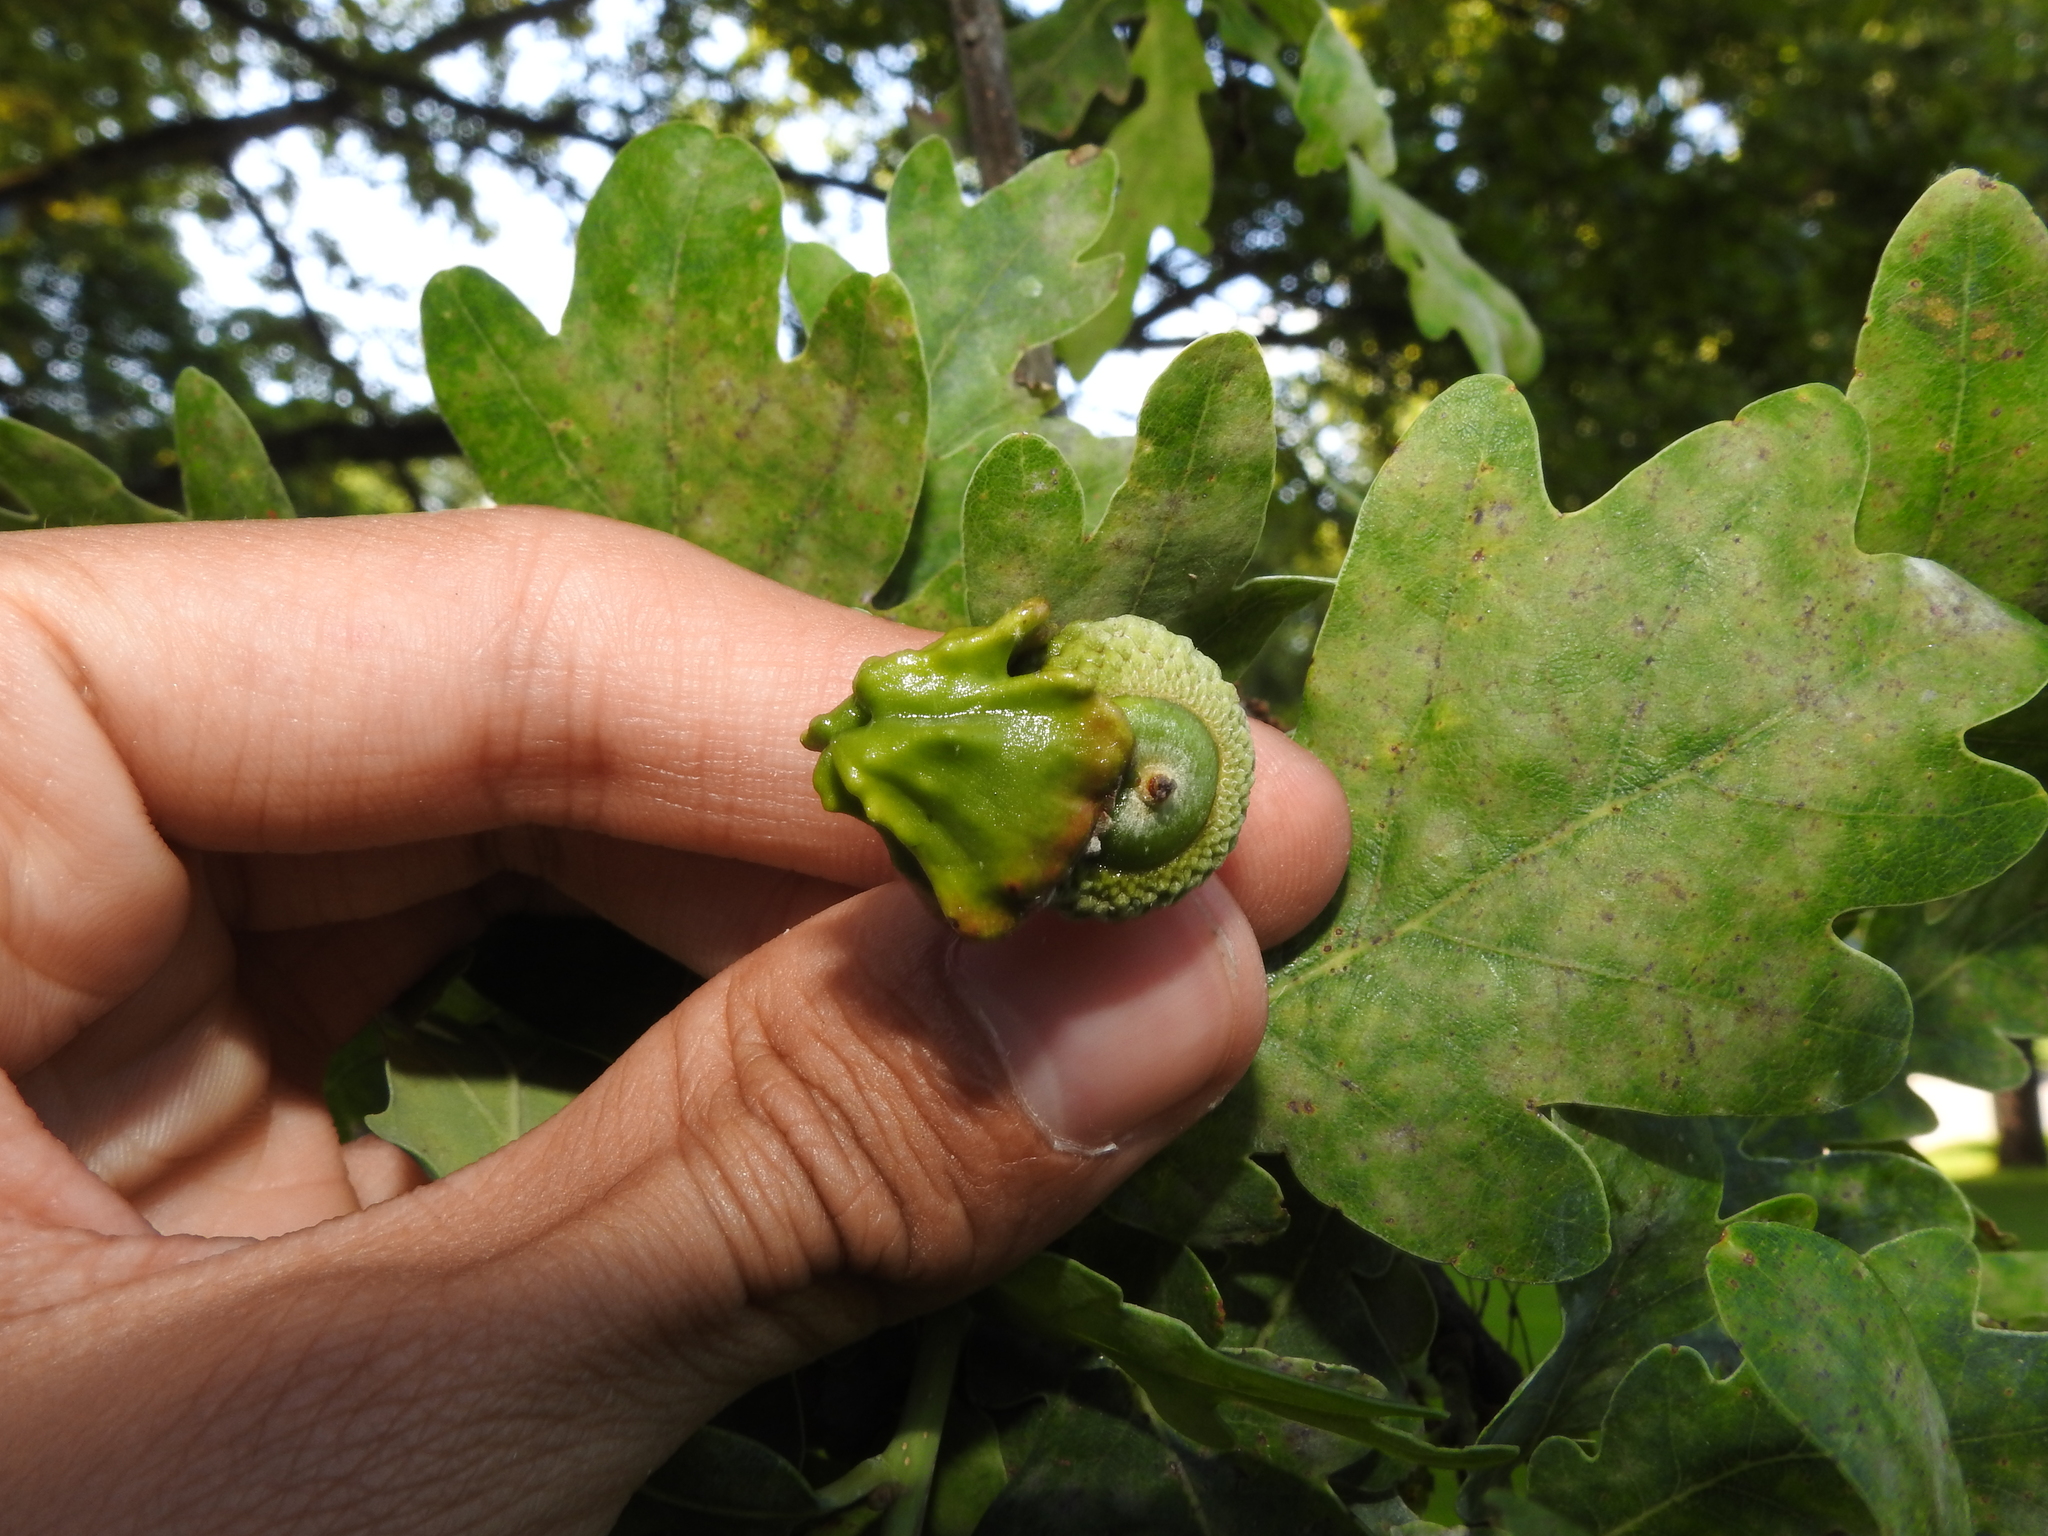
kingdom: Animalia
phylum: Arthropoda
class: Insecta
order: Hymenoptera
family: Cynipidae
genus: Andricus
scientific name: Andricus quercuscalicis
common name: Knopper gall
